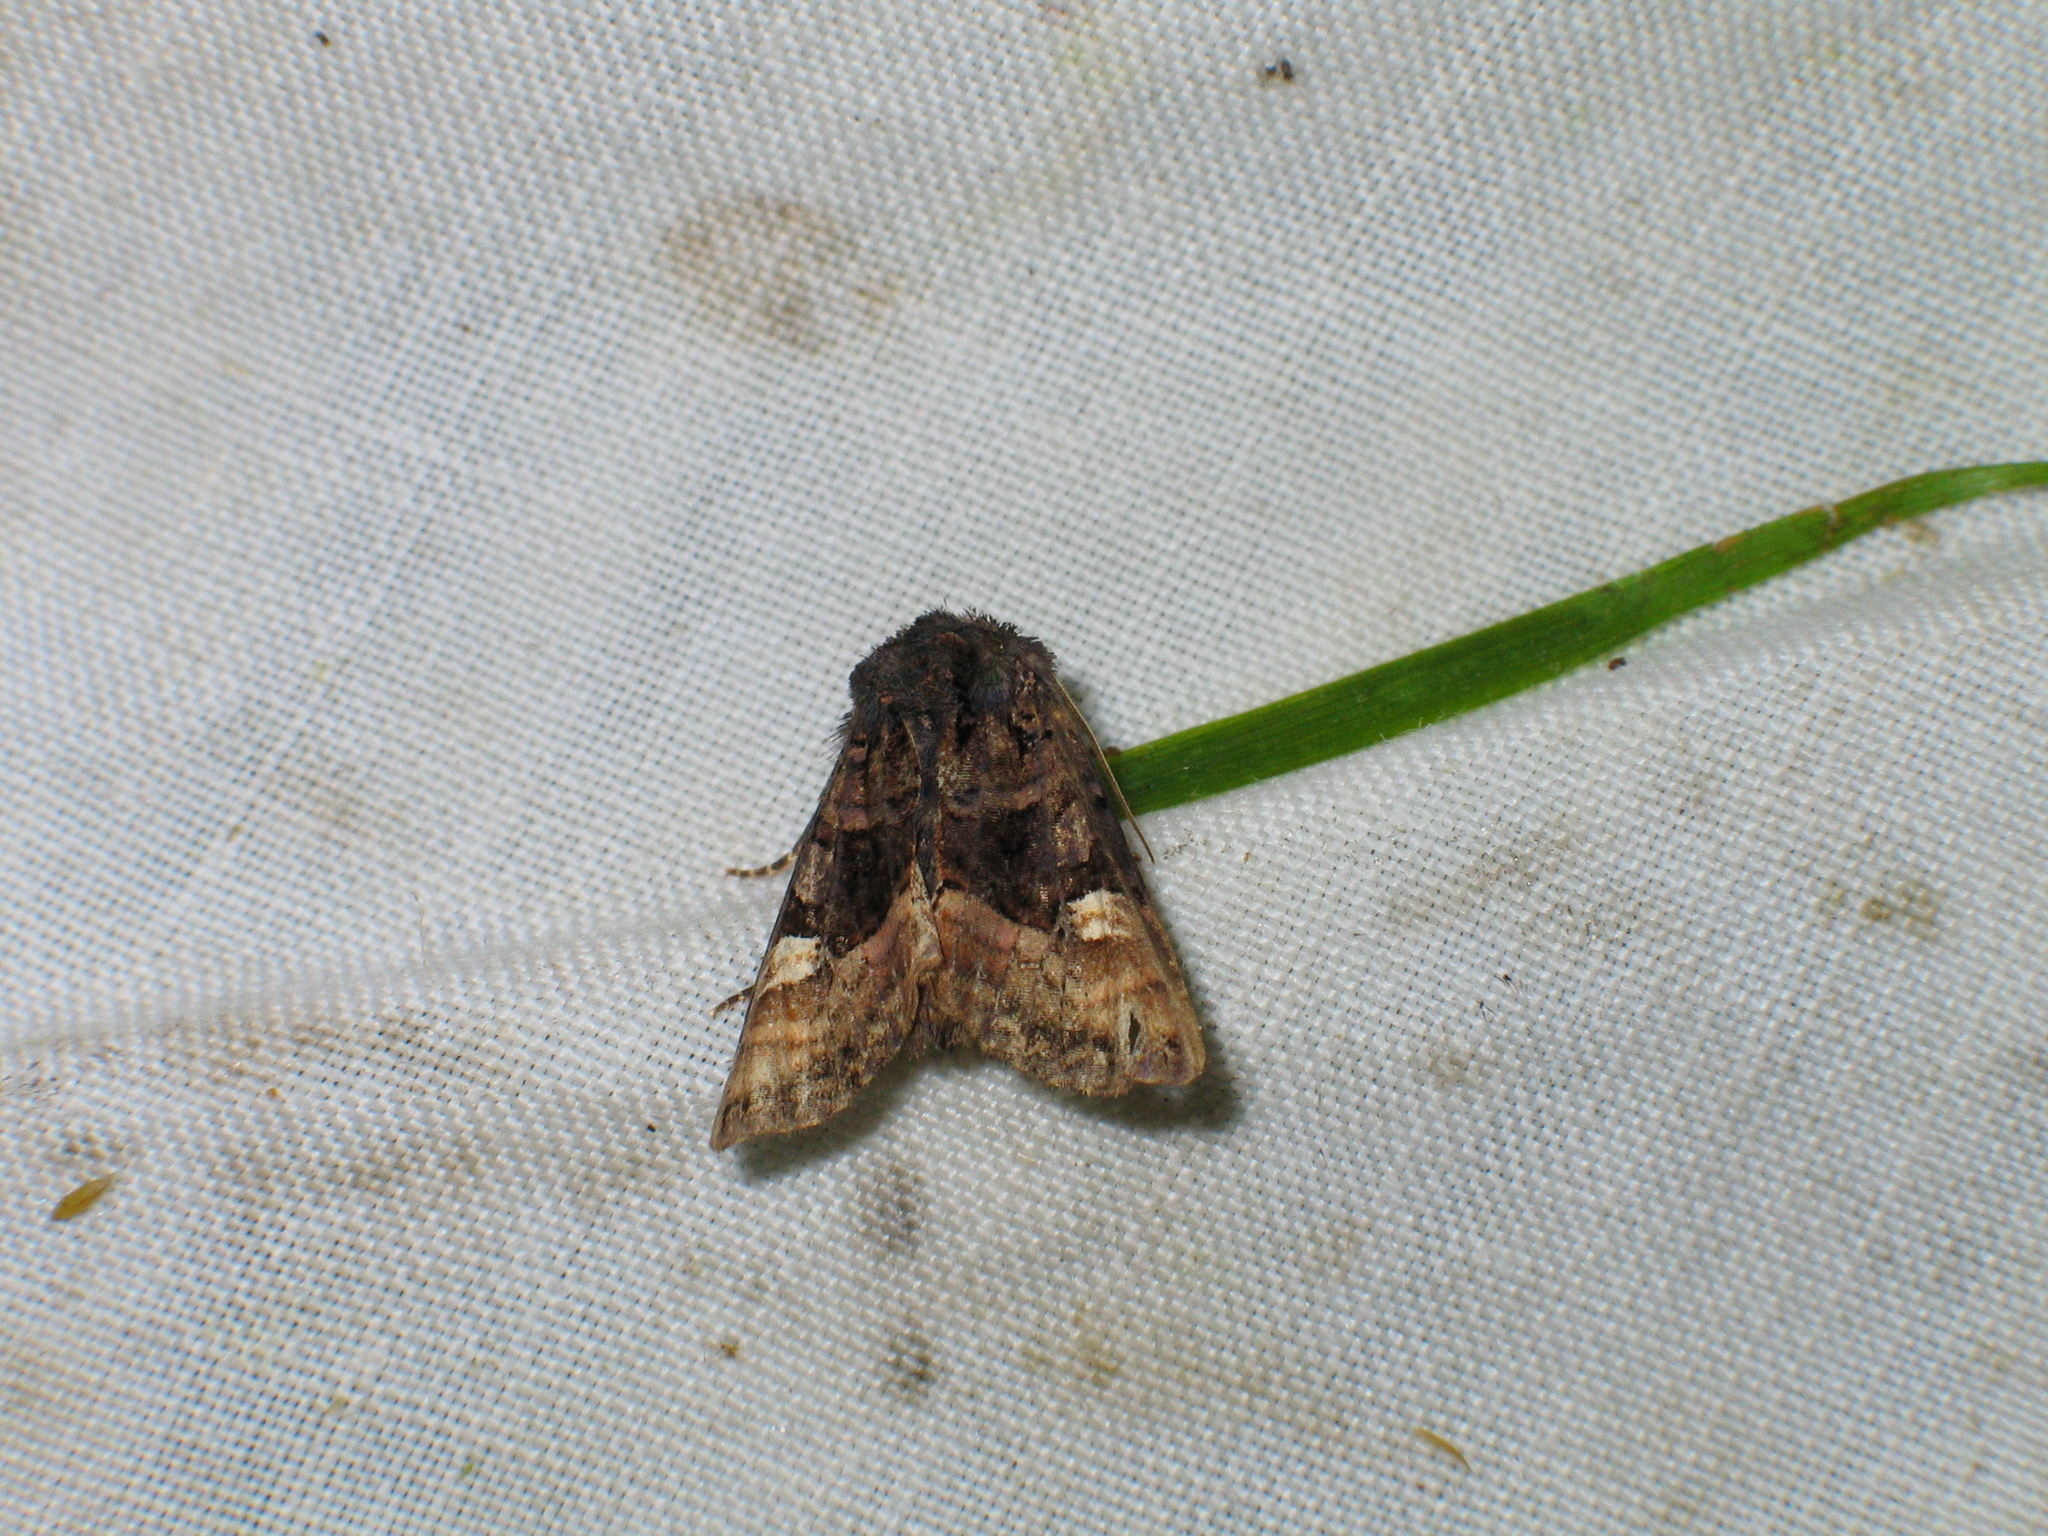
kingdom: Animalia
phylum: Arthropoda
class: Insecta
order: Lepidoptera
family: Noctuidae
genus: Euplexia
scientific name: Euplexia lucipara
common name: Small angle shades
